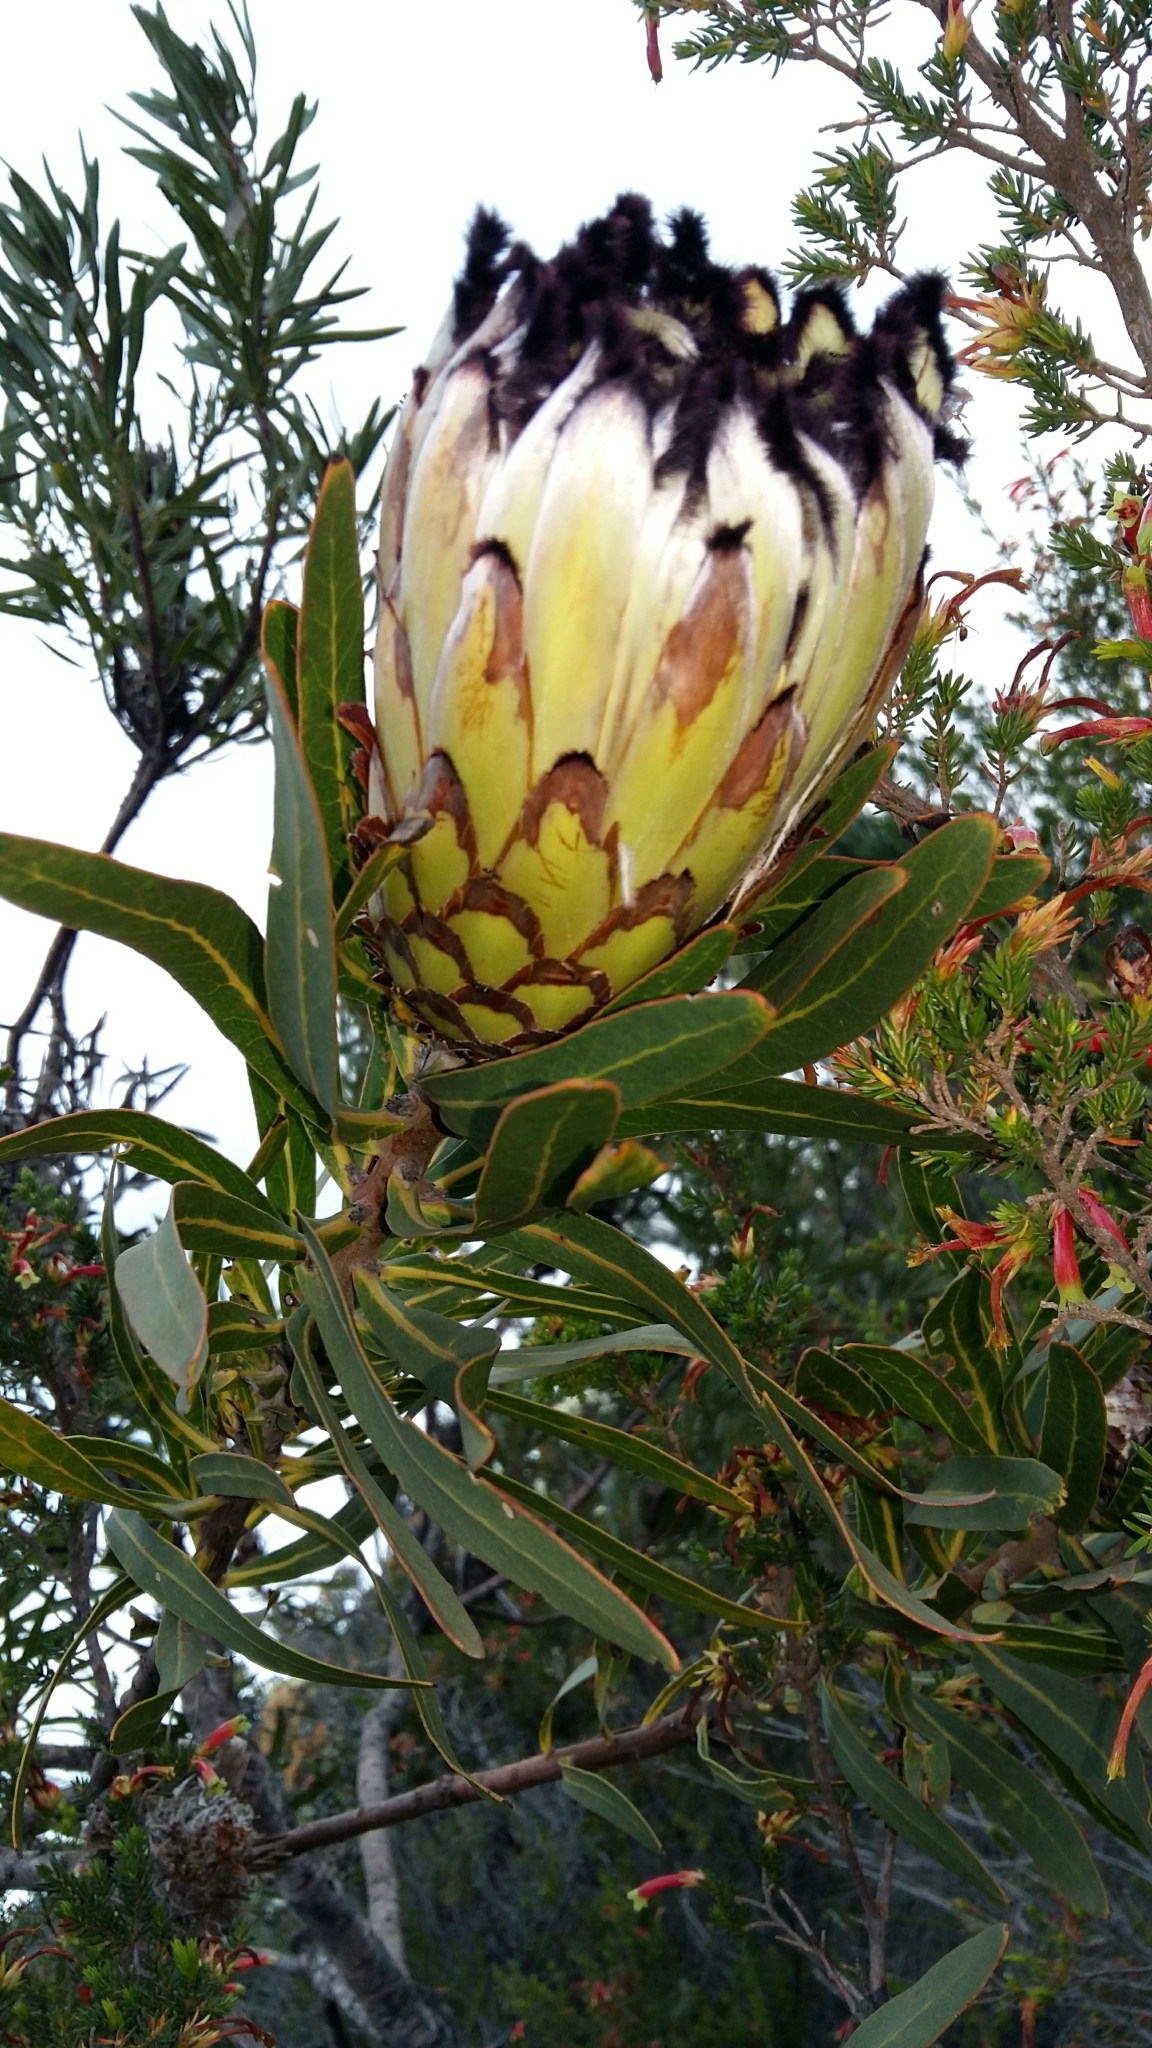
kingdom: Plantae
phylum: Tracheophyta
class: Magnoliopsida
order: Proteales
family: Proteaceae
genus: Protea
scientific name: Protea neriifolia
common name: Blue sugarbush
